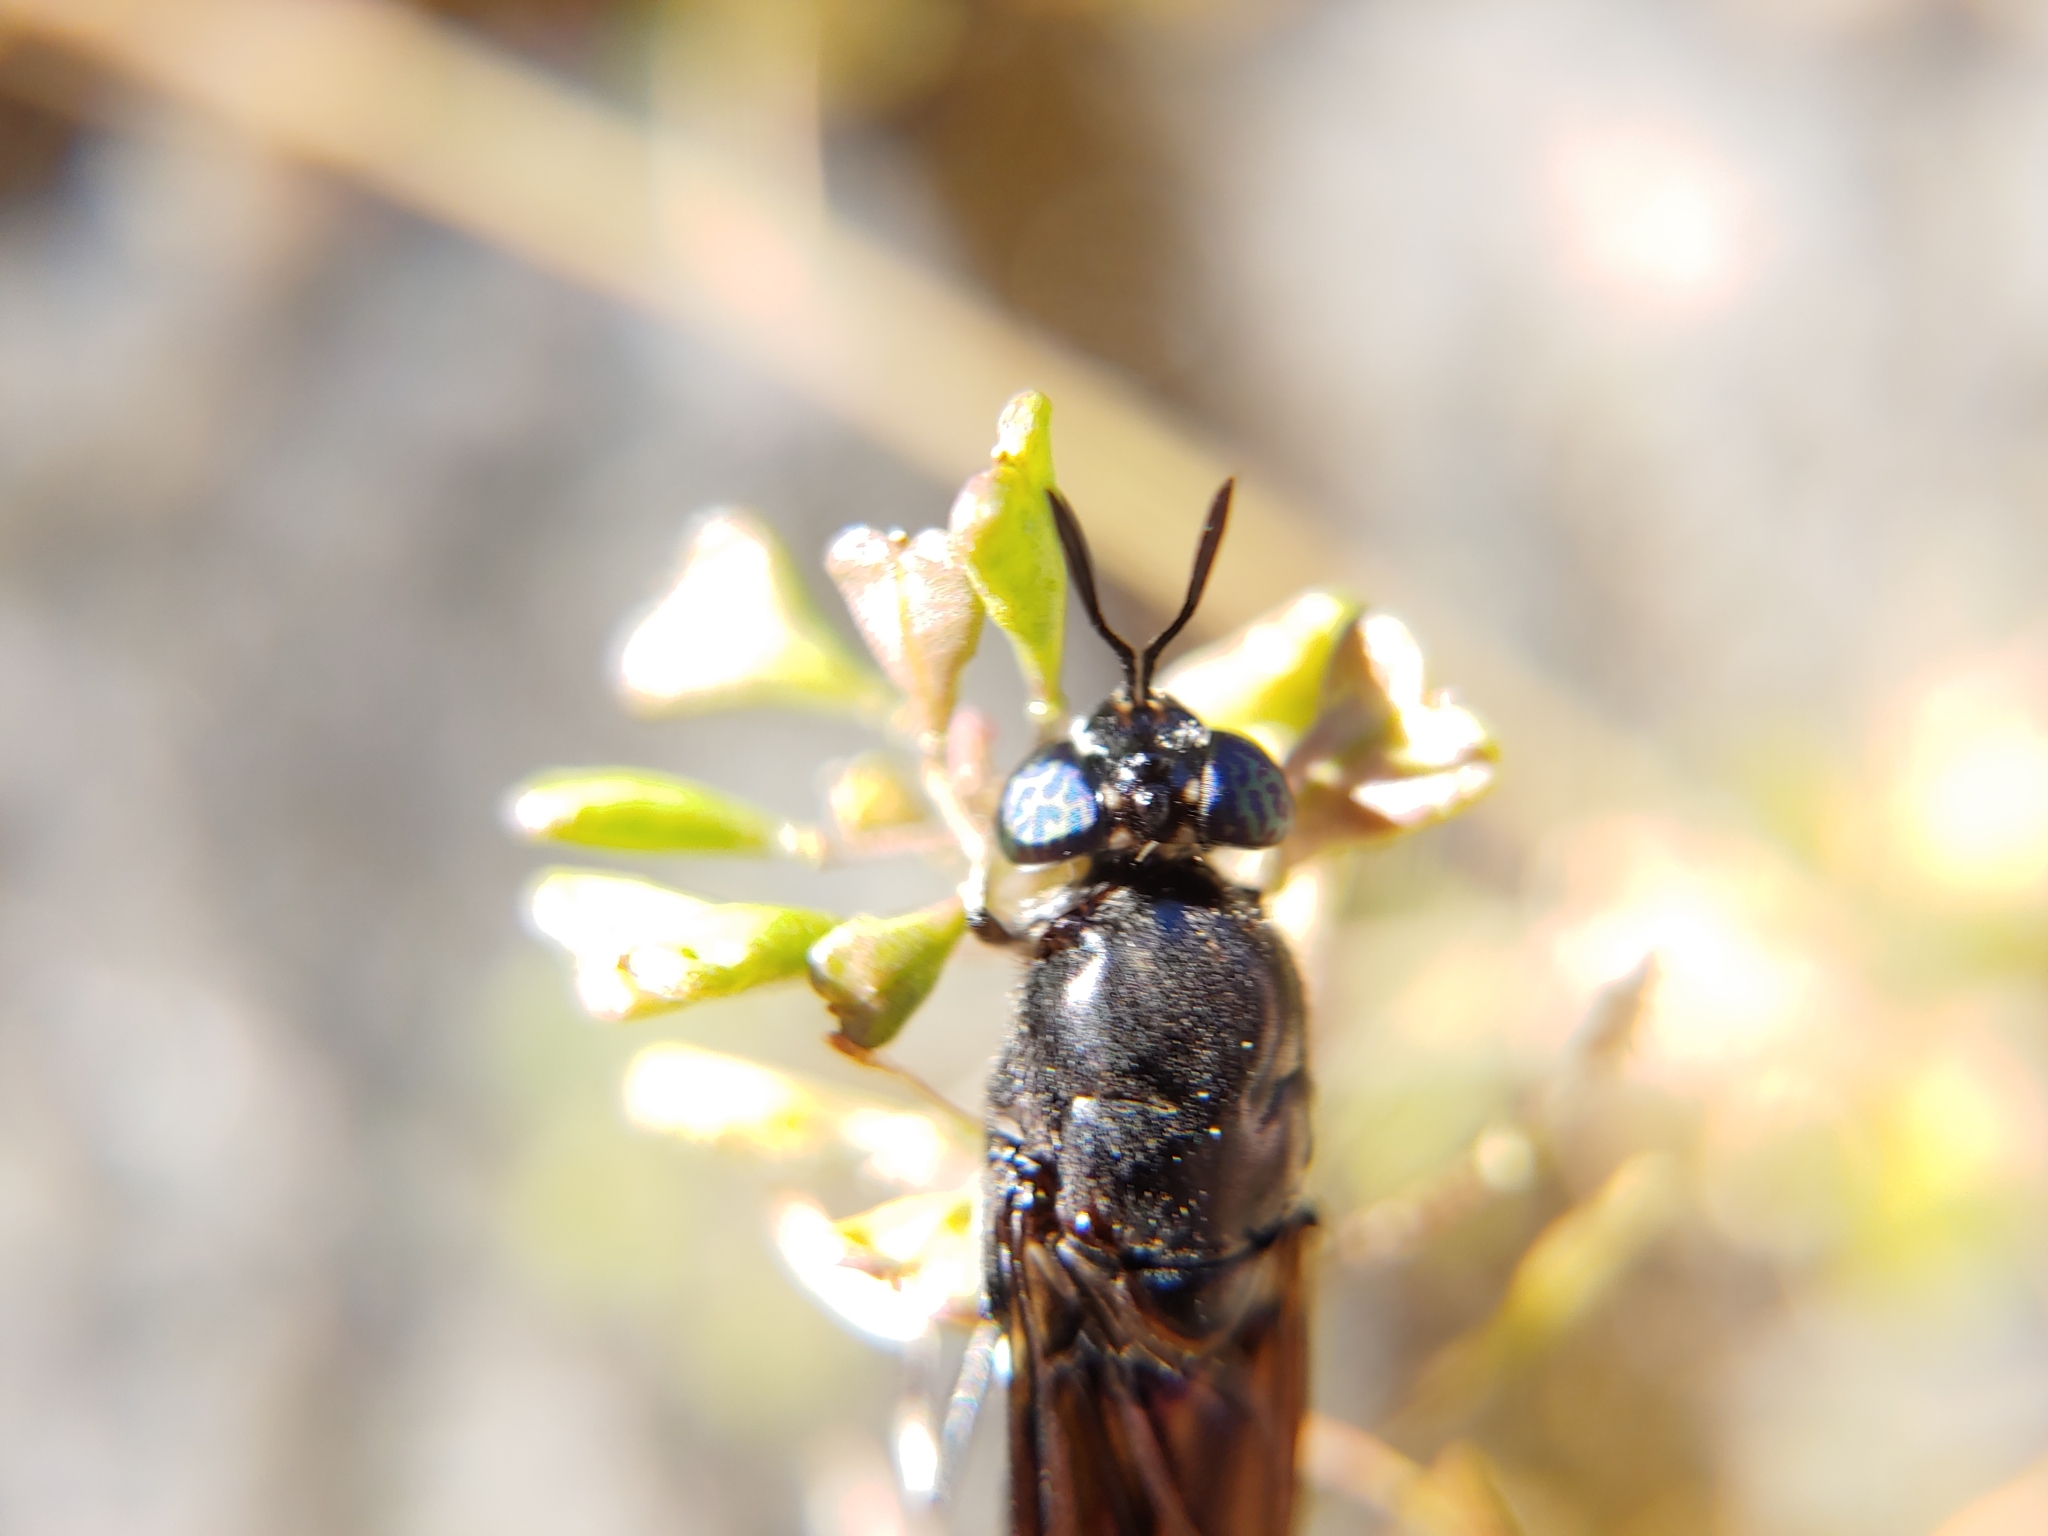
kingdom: Animalia
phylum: Arthropoda
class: Insecta
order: Diptera
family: Stratiomyidae
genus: Hermetia
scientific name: Hermetia illucens
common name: Black soldier fly
